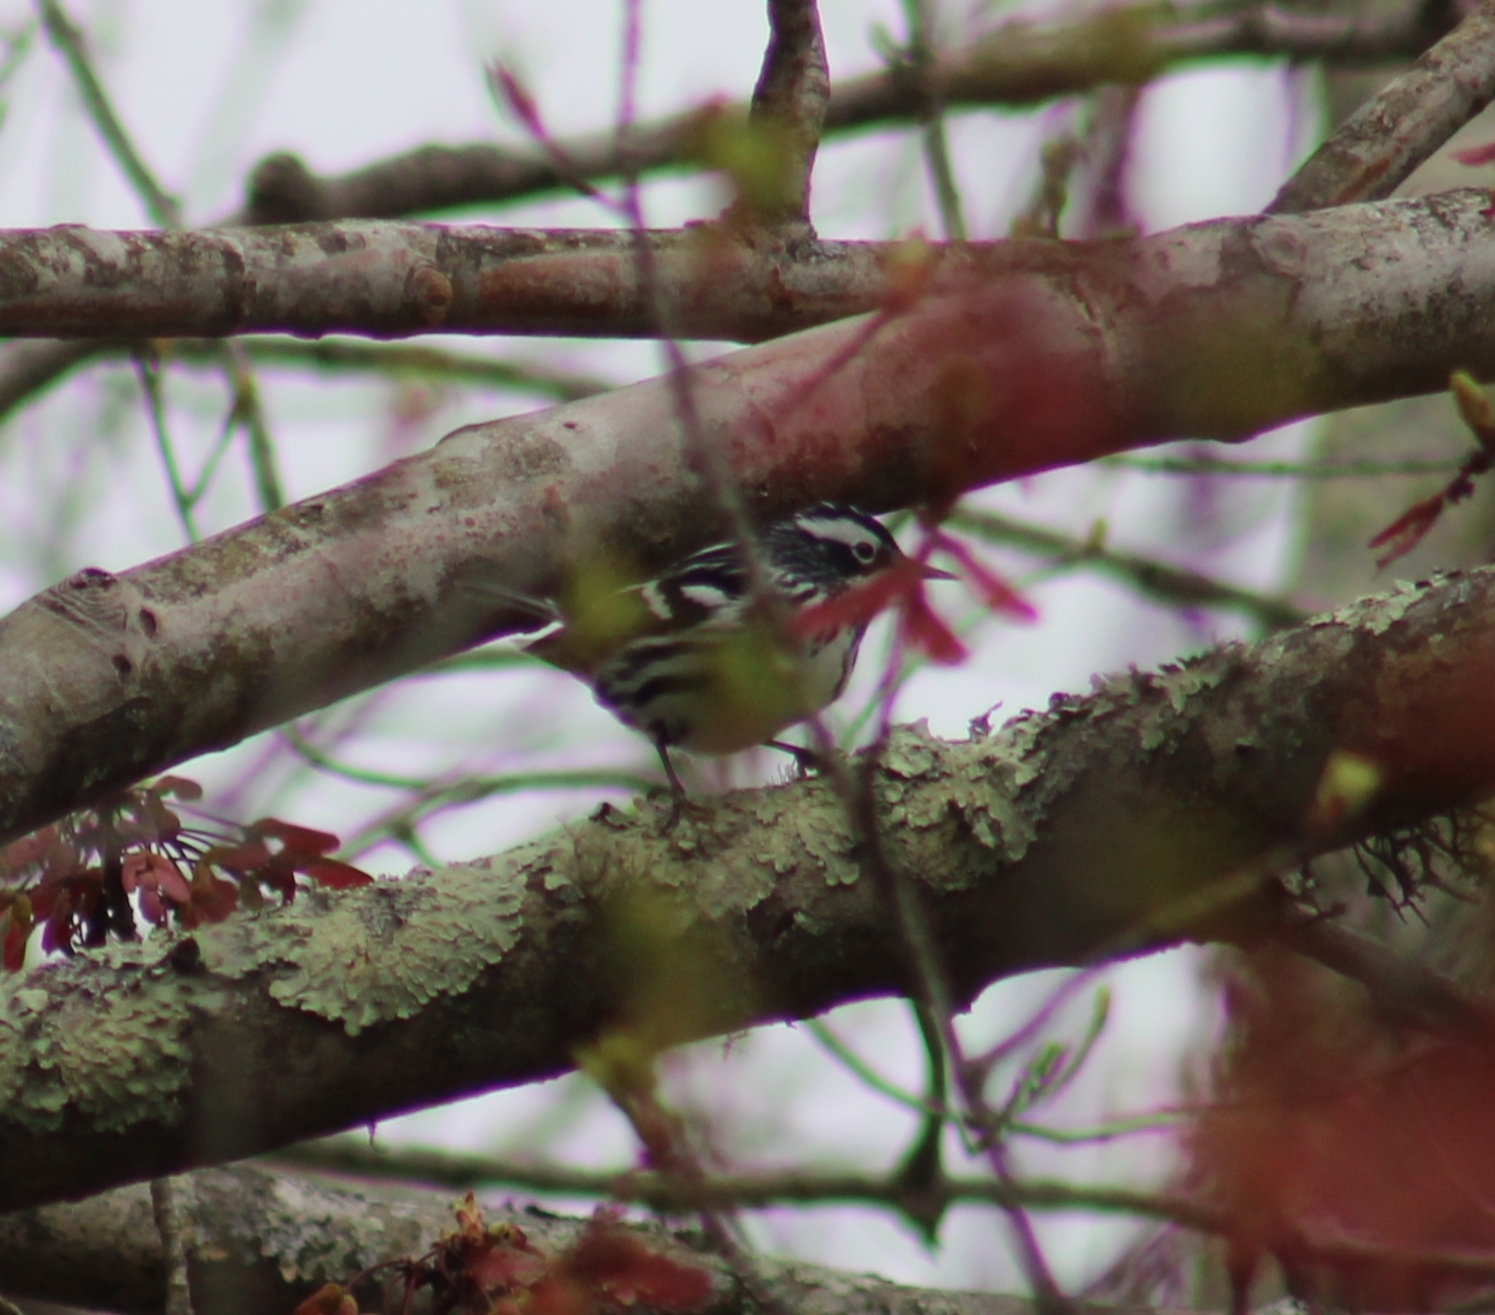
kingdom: Animalia
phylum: Chordata
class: Aves
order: Passeriformes
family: Parulidae
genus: Mniotilta
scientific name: Mniotilta varia
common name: Black-and-white warbler
